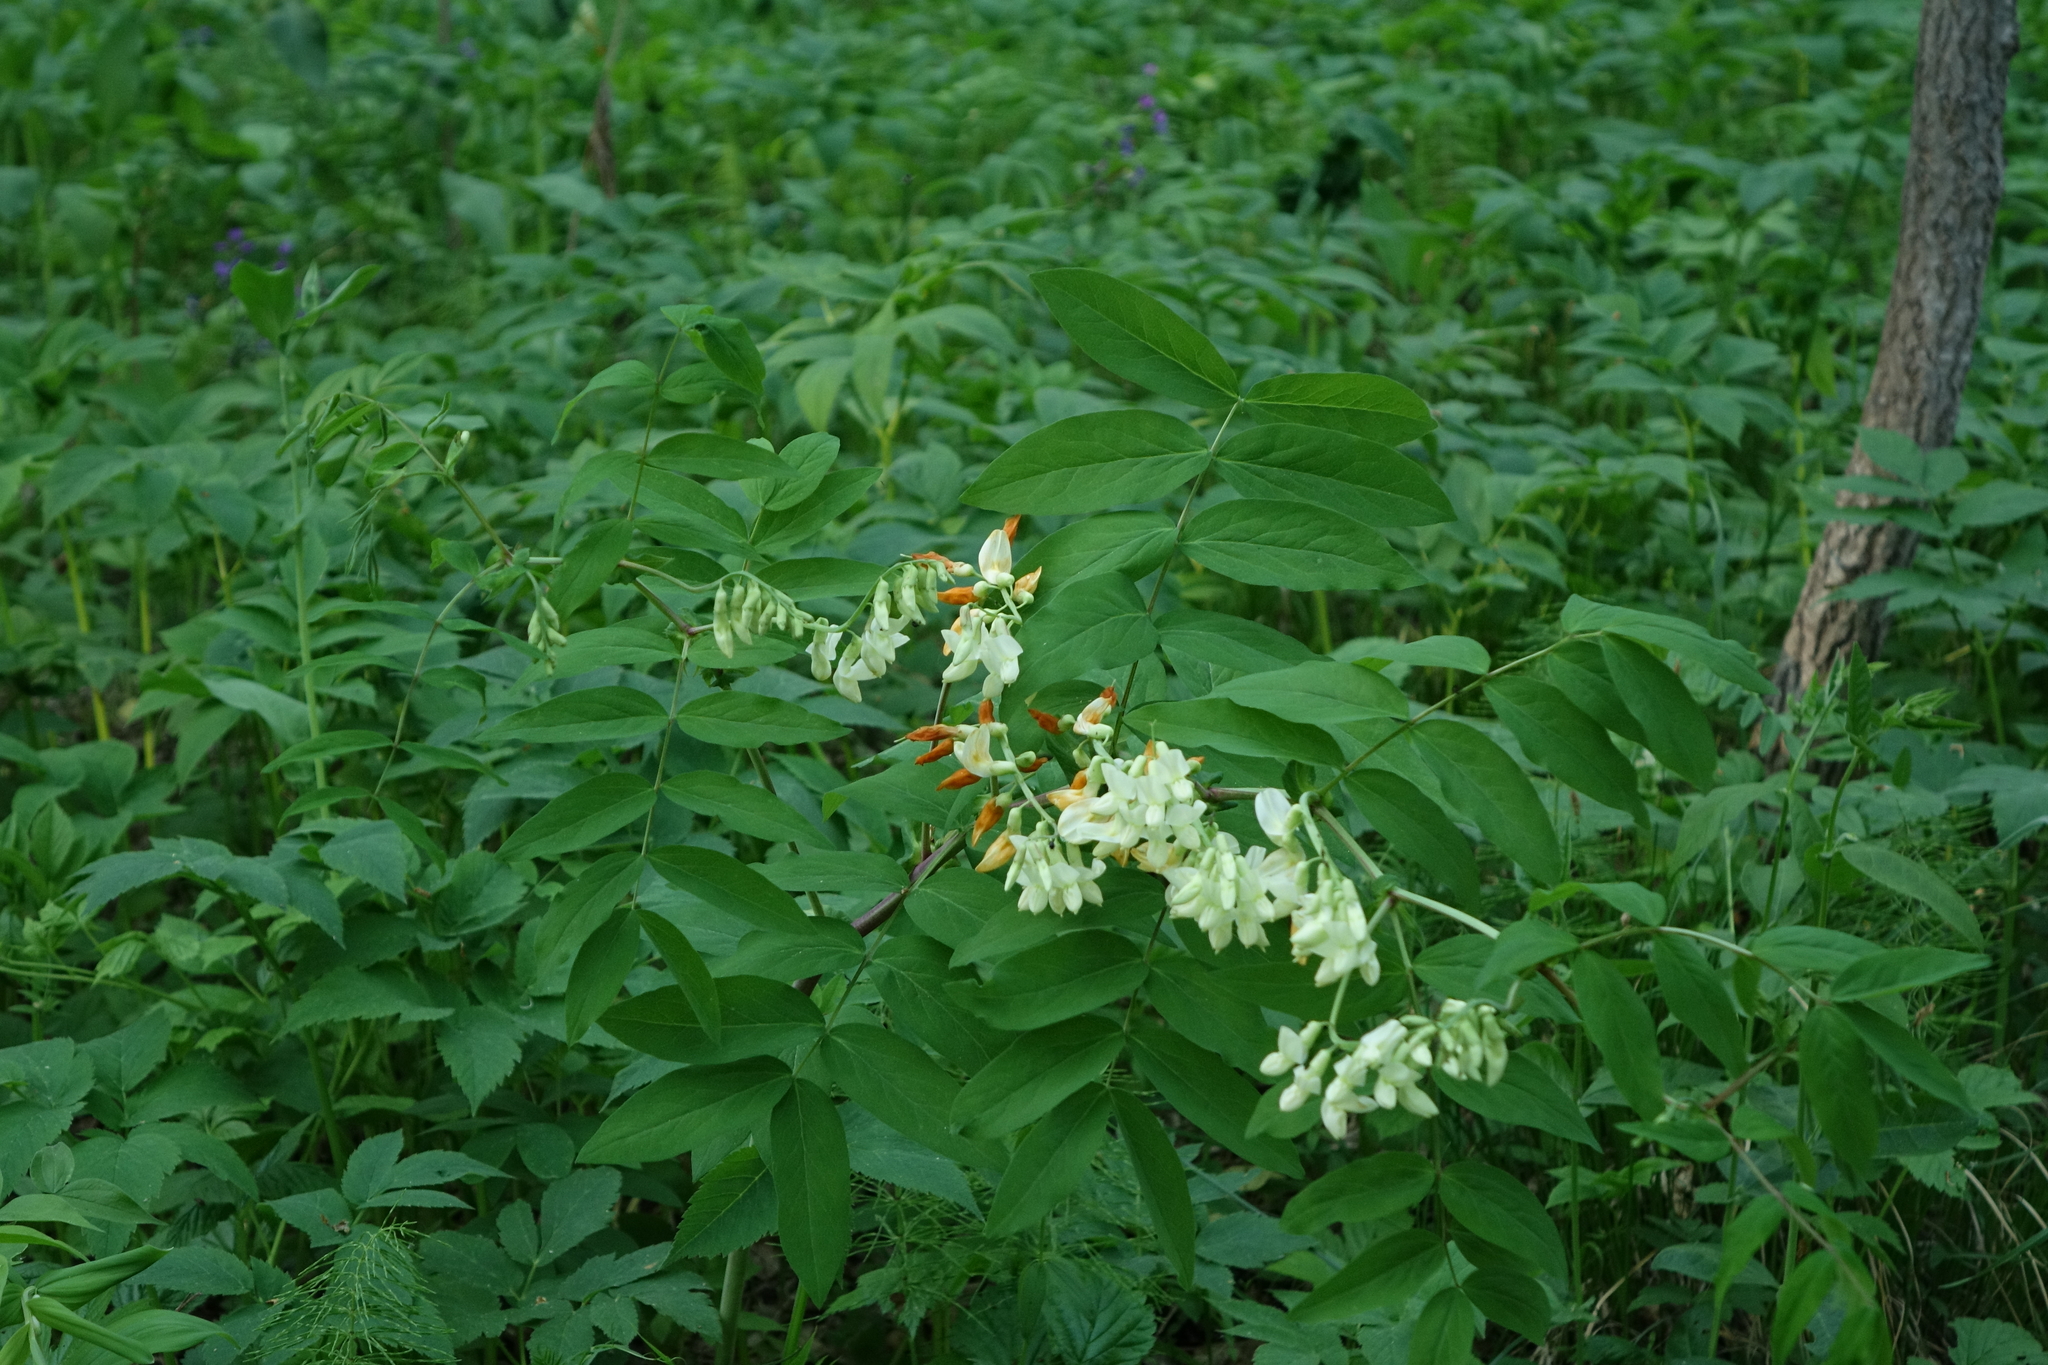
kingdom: Plantae
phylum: Tracheophyta
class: Magnoliopsida
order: Fabales
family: Fabaceae
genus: Lathyrus
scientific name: Lathyrus gmelinii
